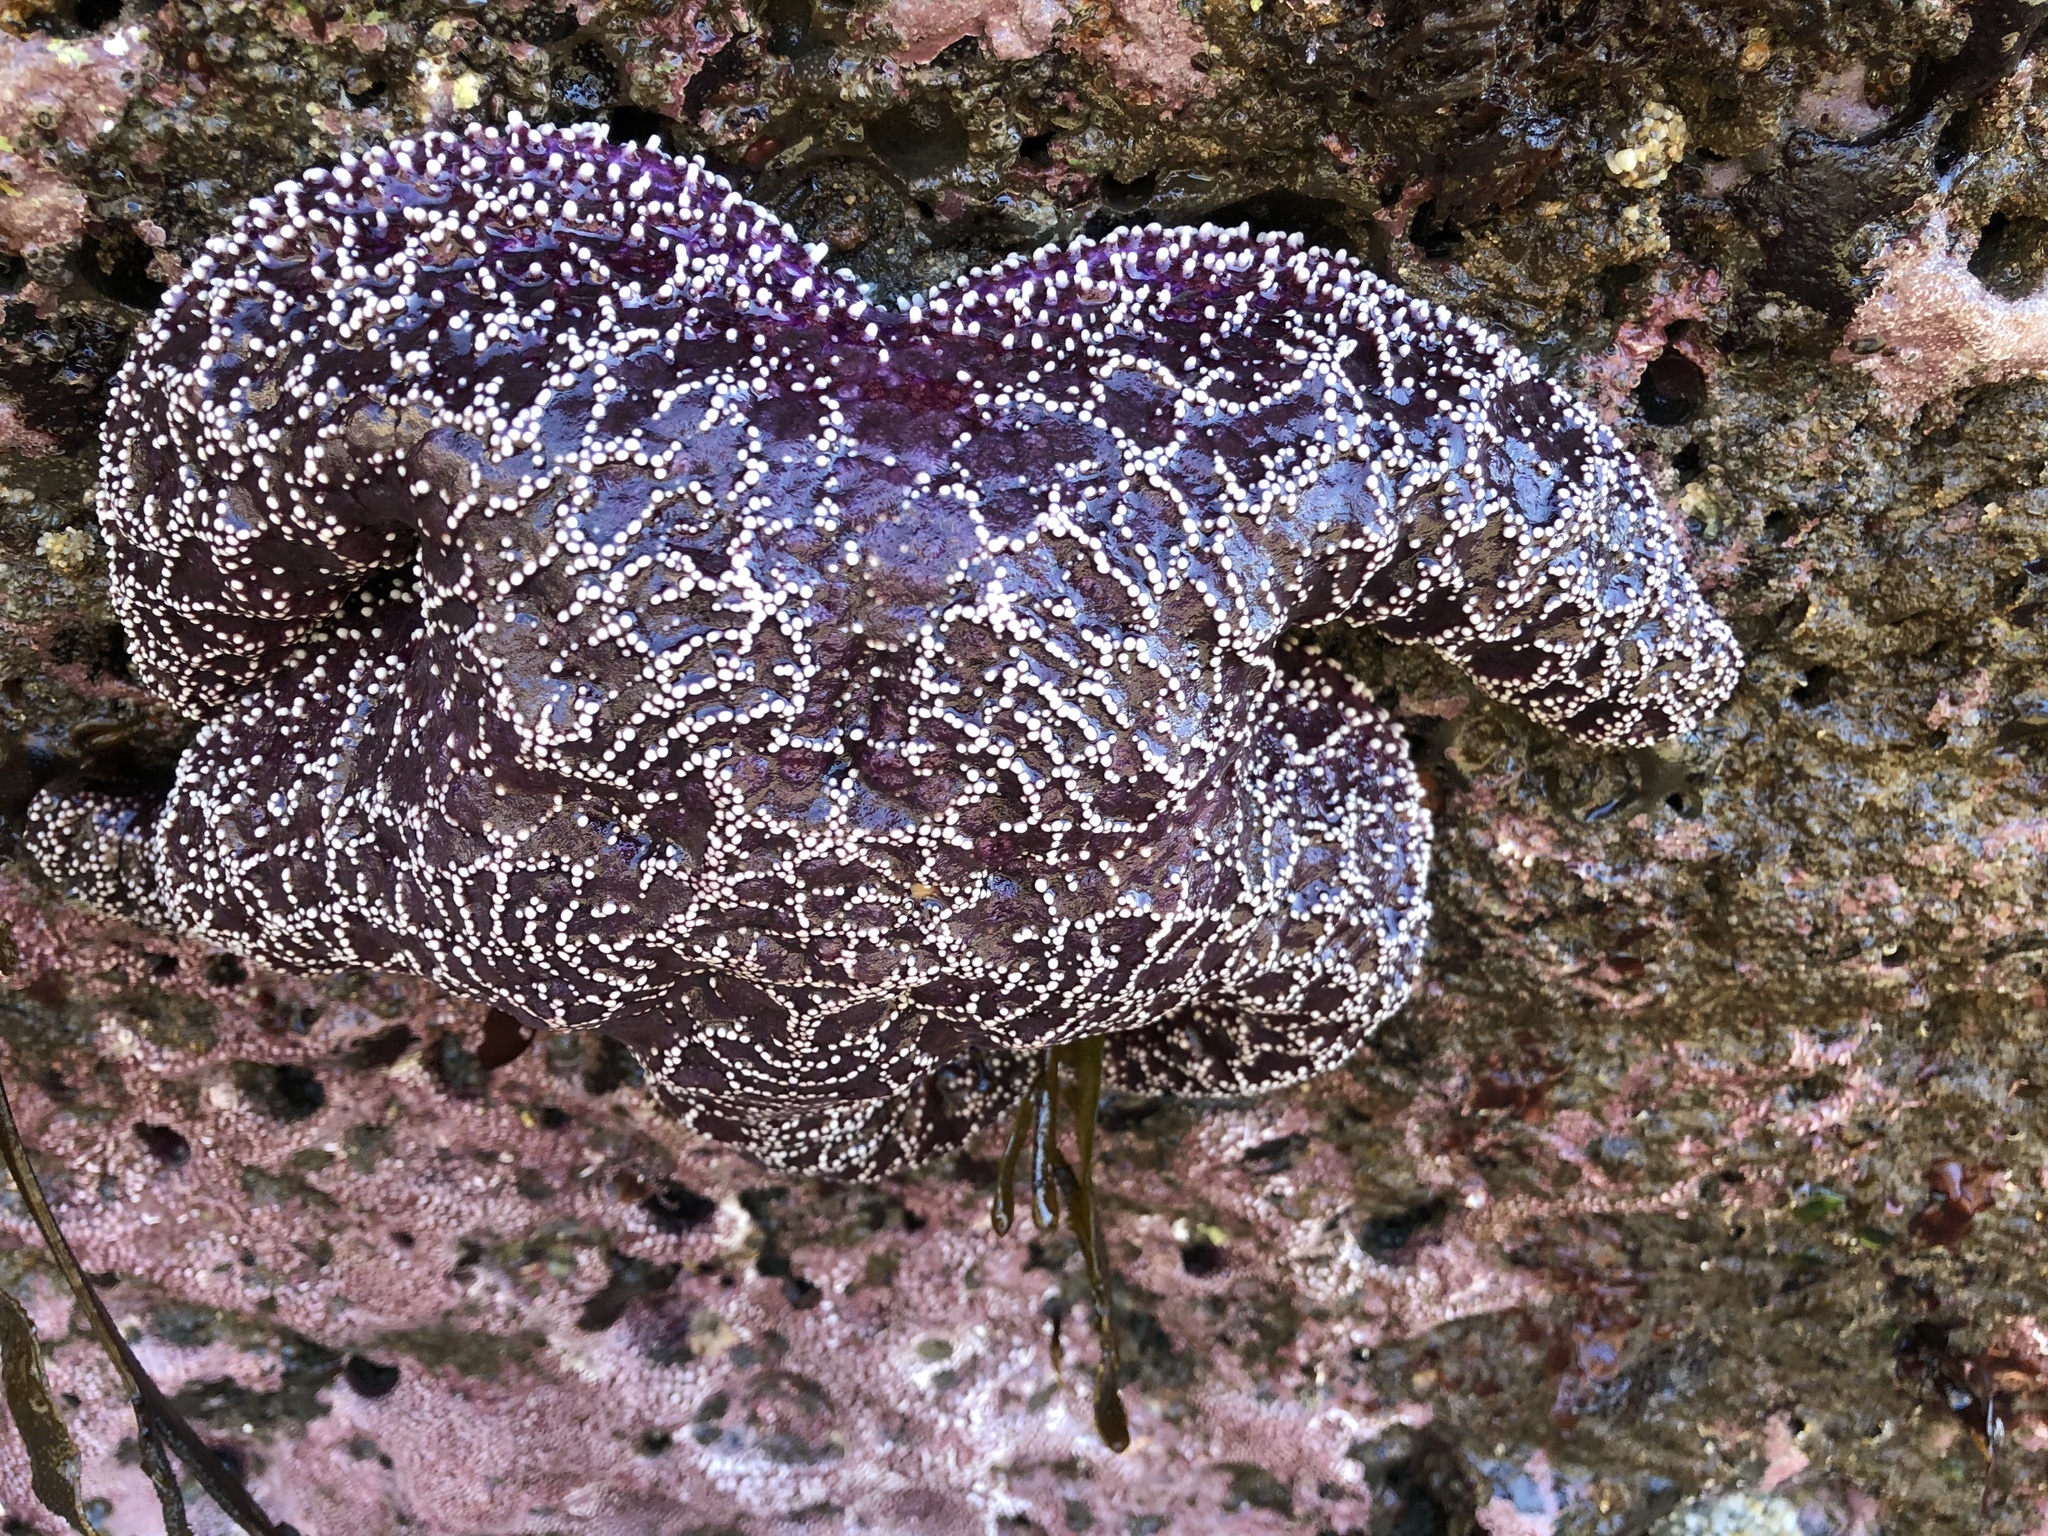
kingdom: Animalia
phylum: Echinodermata
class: Asteroidea
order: Forcipulatida
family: Asteriidae
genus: Pisaster
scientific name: Pisaster ochraceus
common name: Ochre stars
